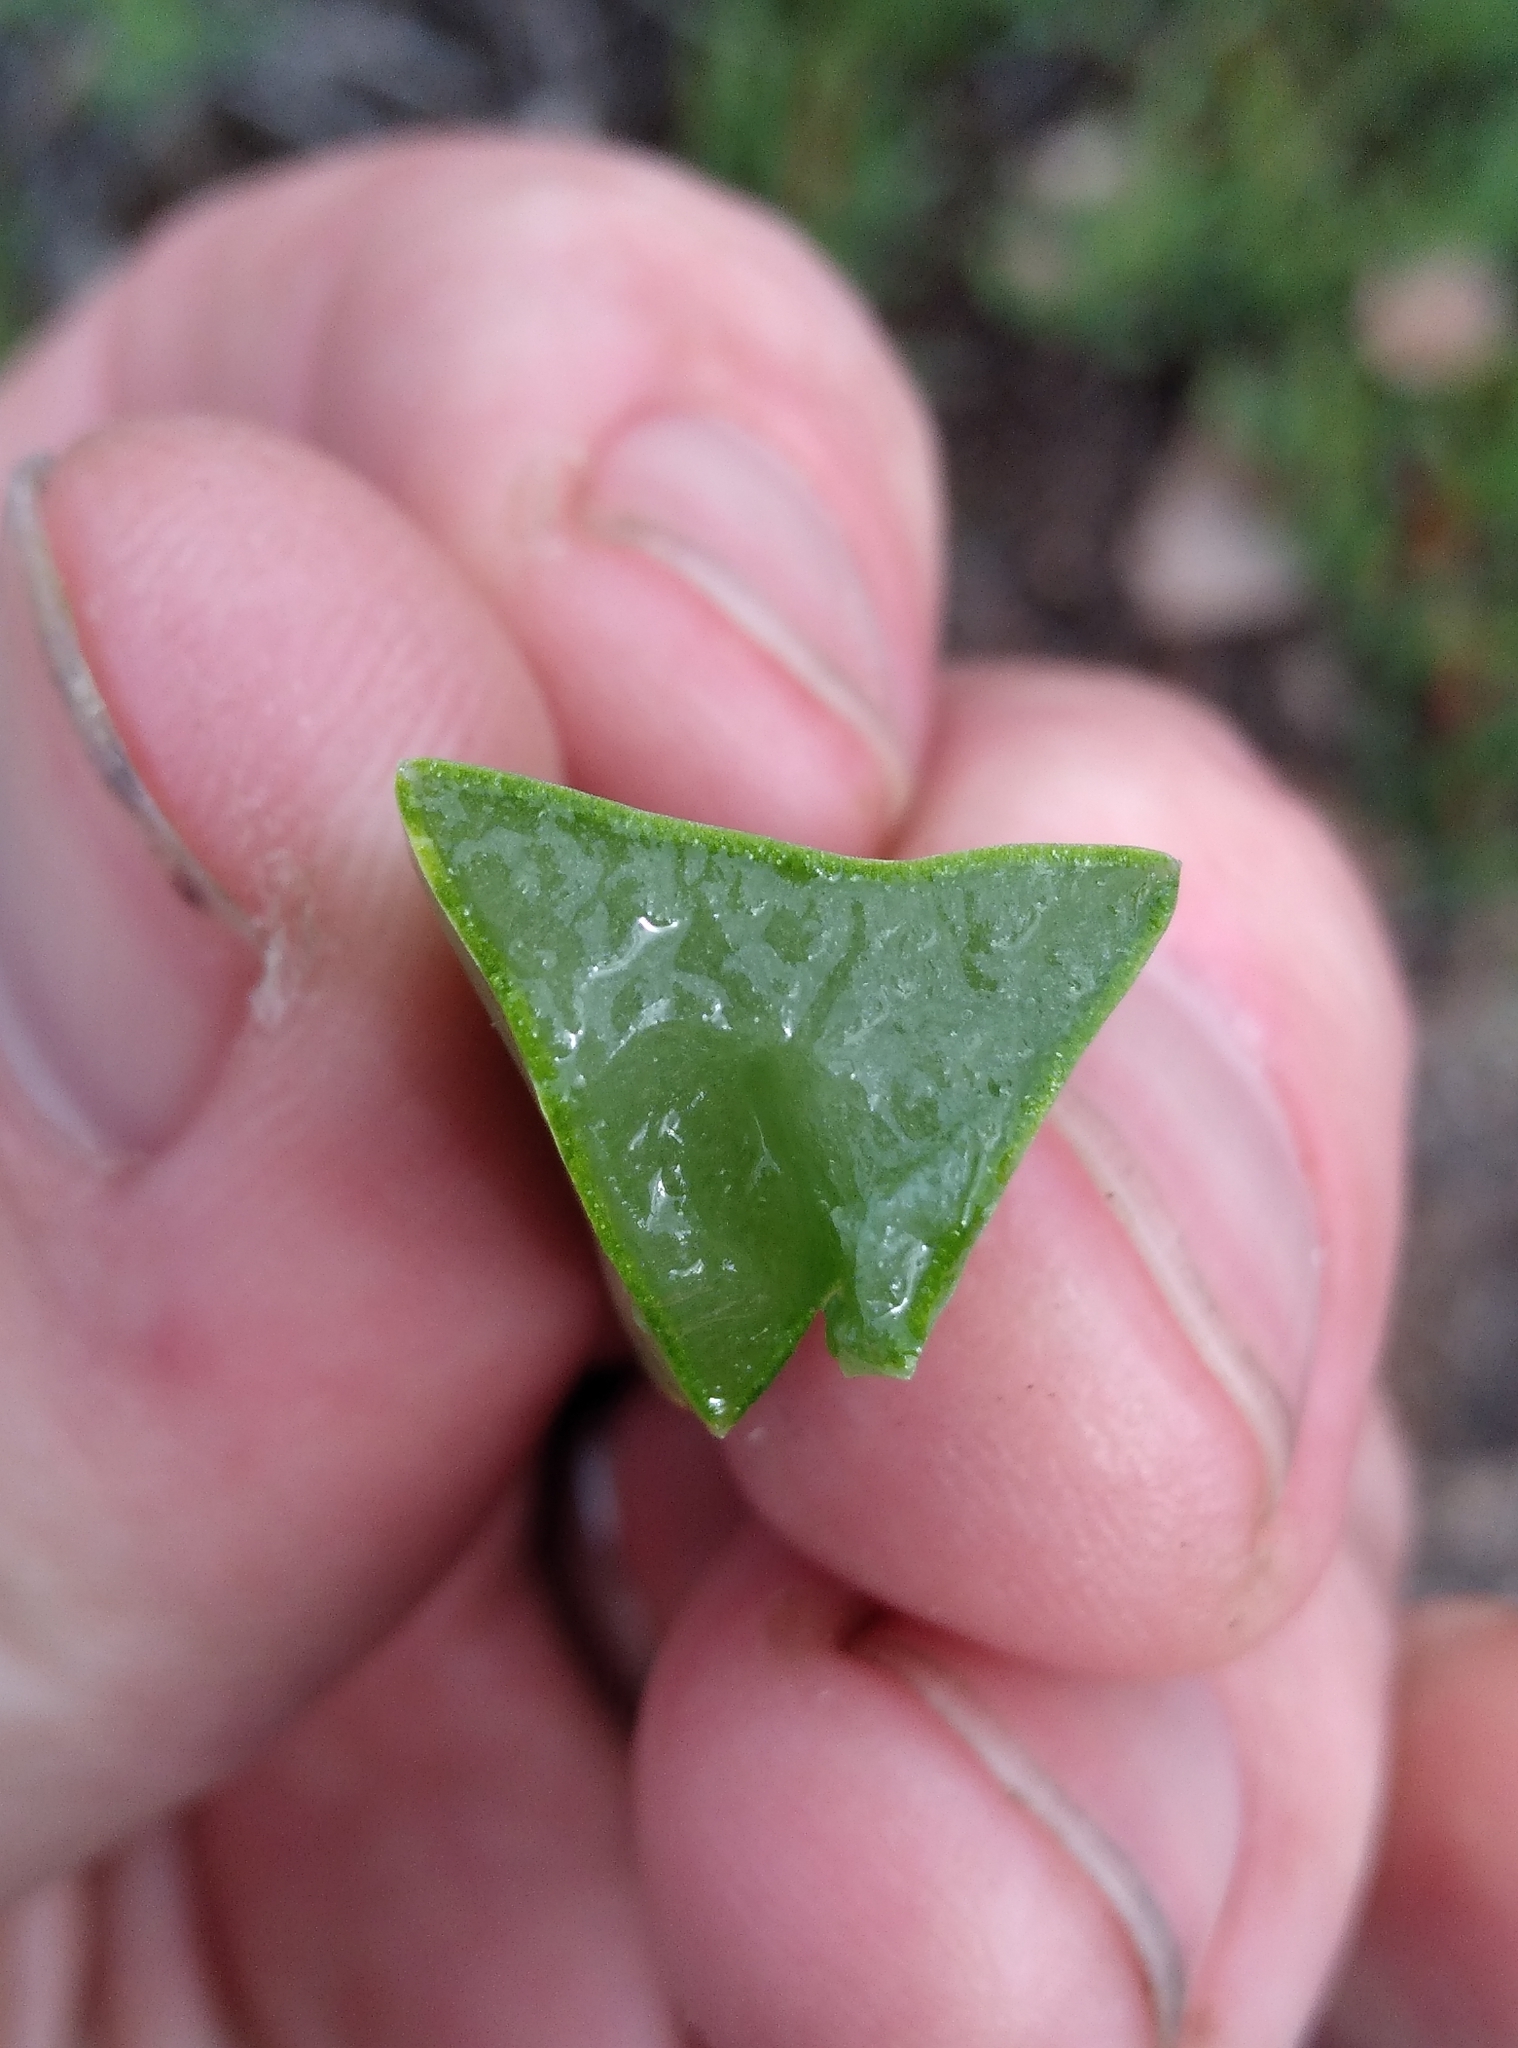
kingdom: Plantae
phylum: Tracheophyta
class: Magnoliopsida
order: Caryophyllales
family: Aizoaceae
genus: Carpobrotus
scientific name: Carpobrotus edulis
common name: Hottentot-fig
